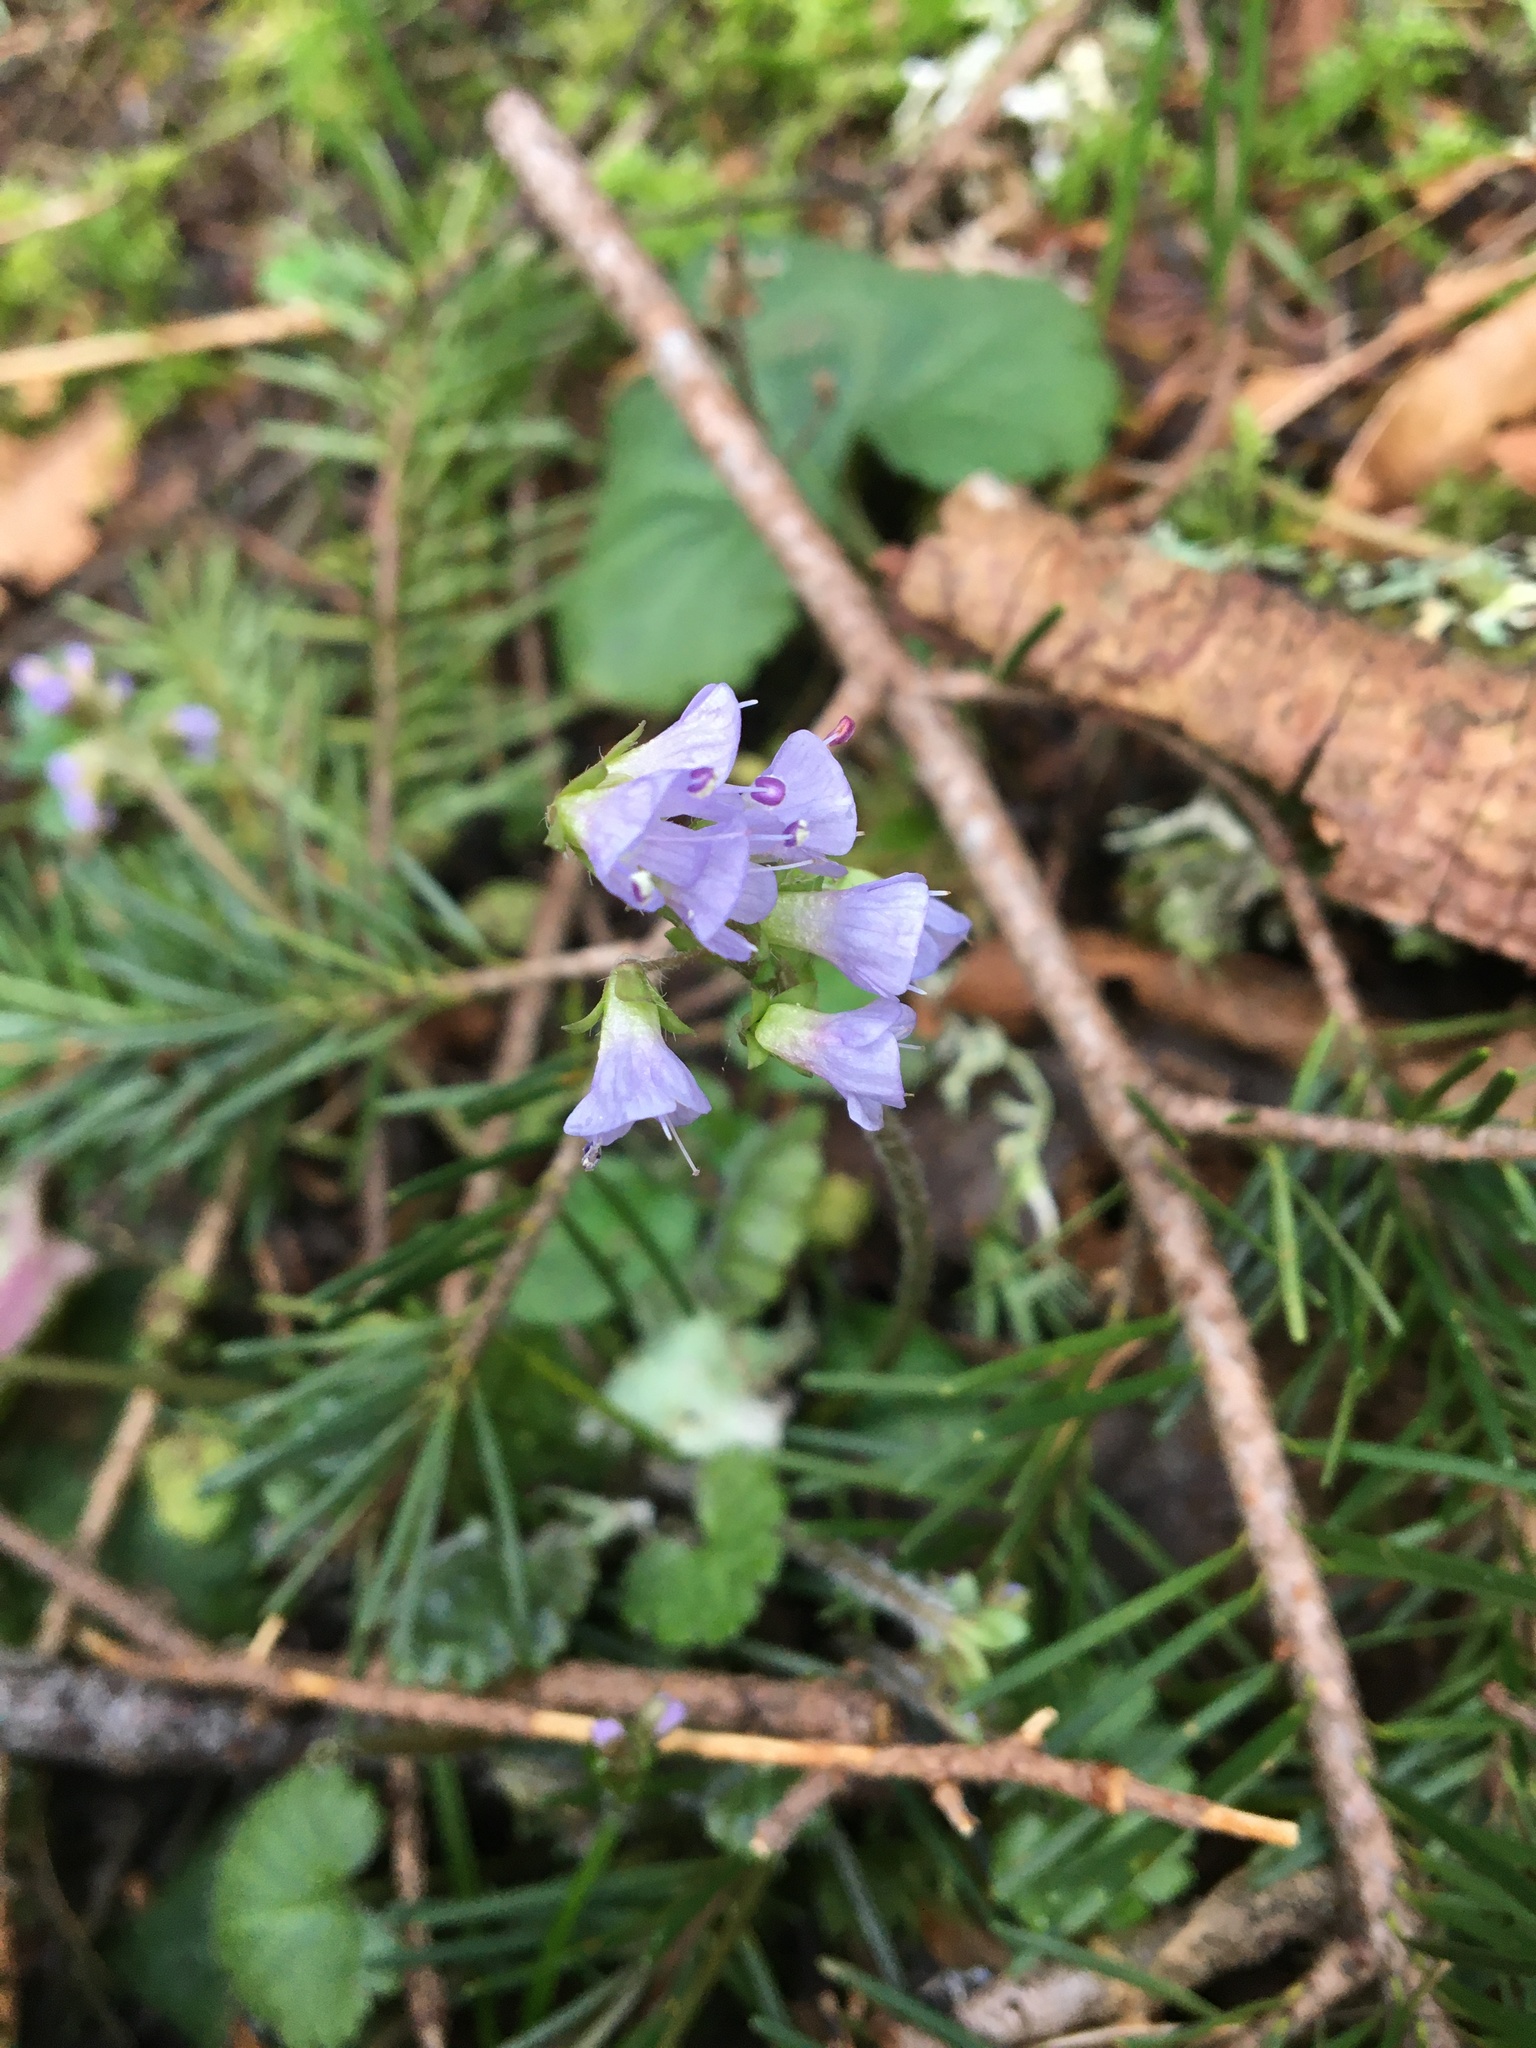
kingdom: Plantae
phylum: Tracheophyta
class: Magnoliopsida
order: Lamiales
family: Plantaginaceae
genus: Synthyris
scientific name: Synthyris reniformis
